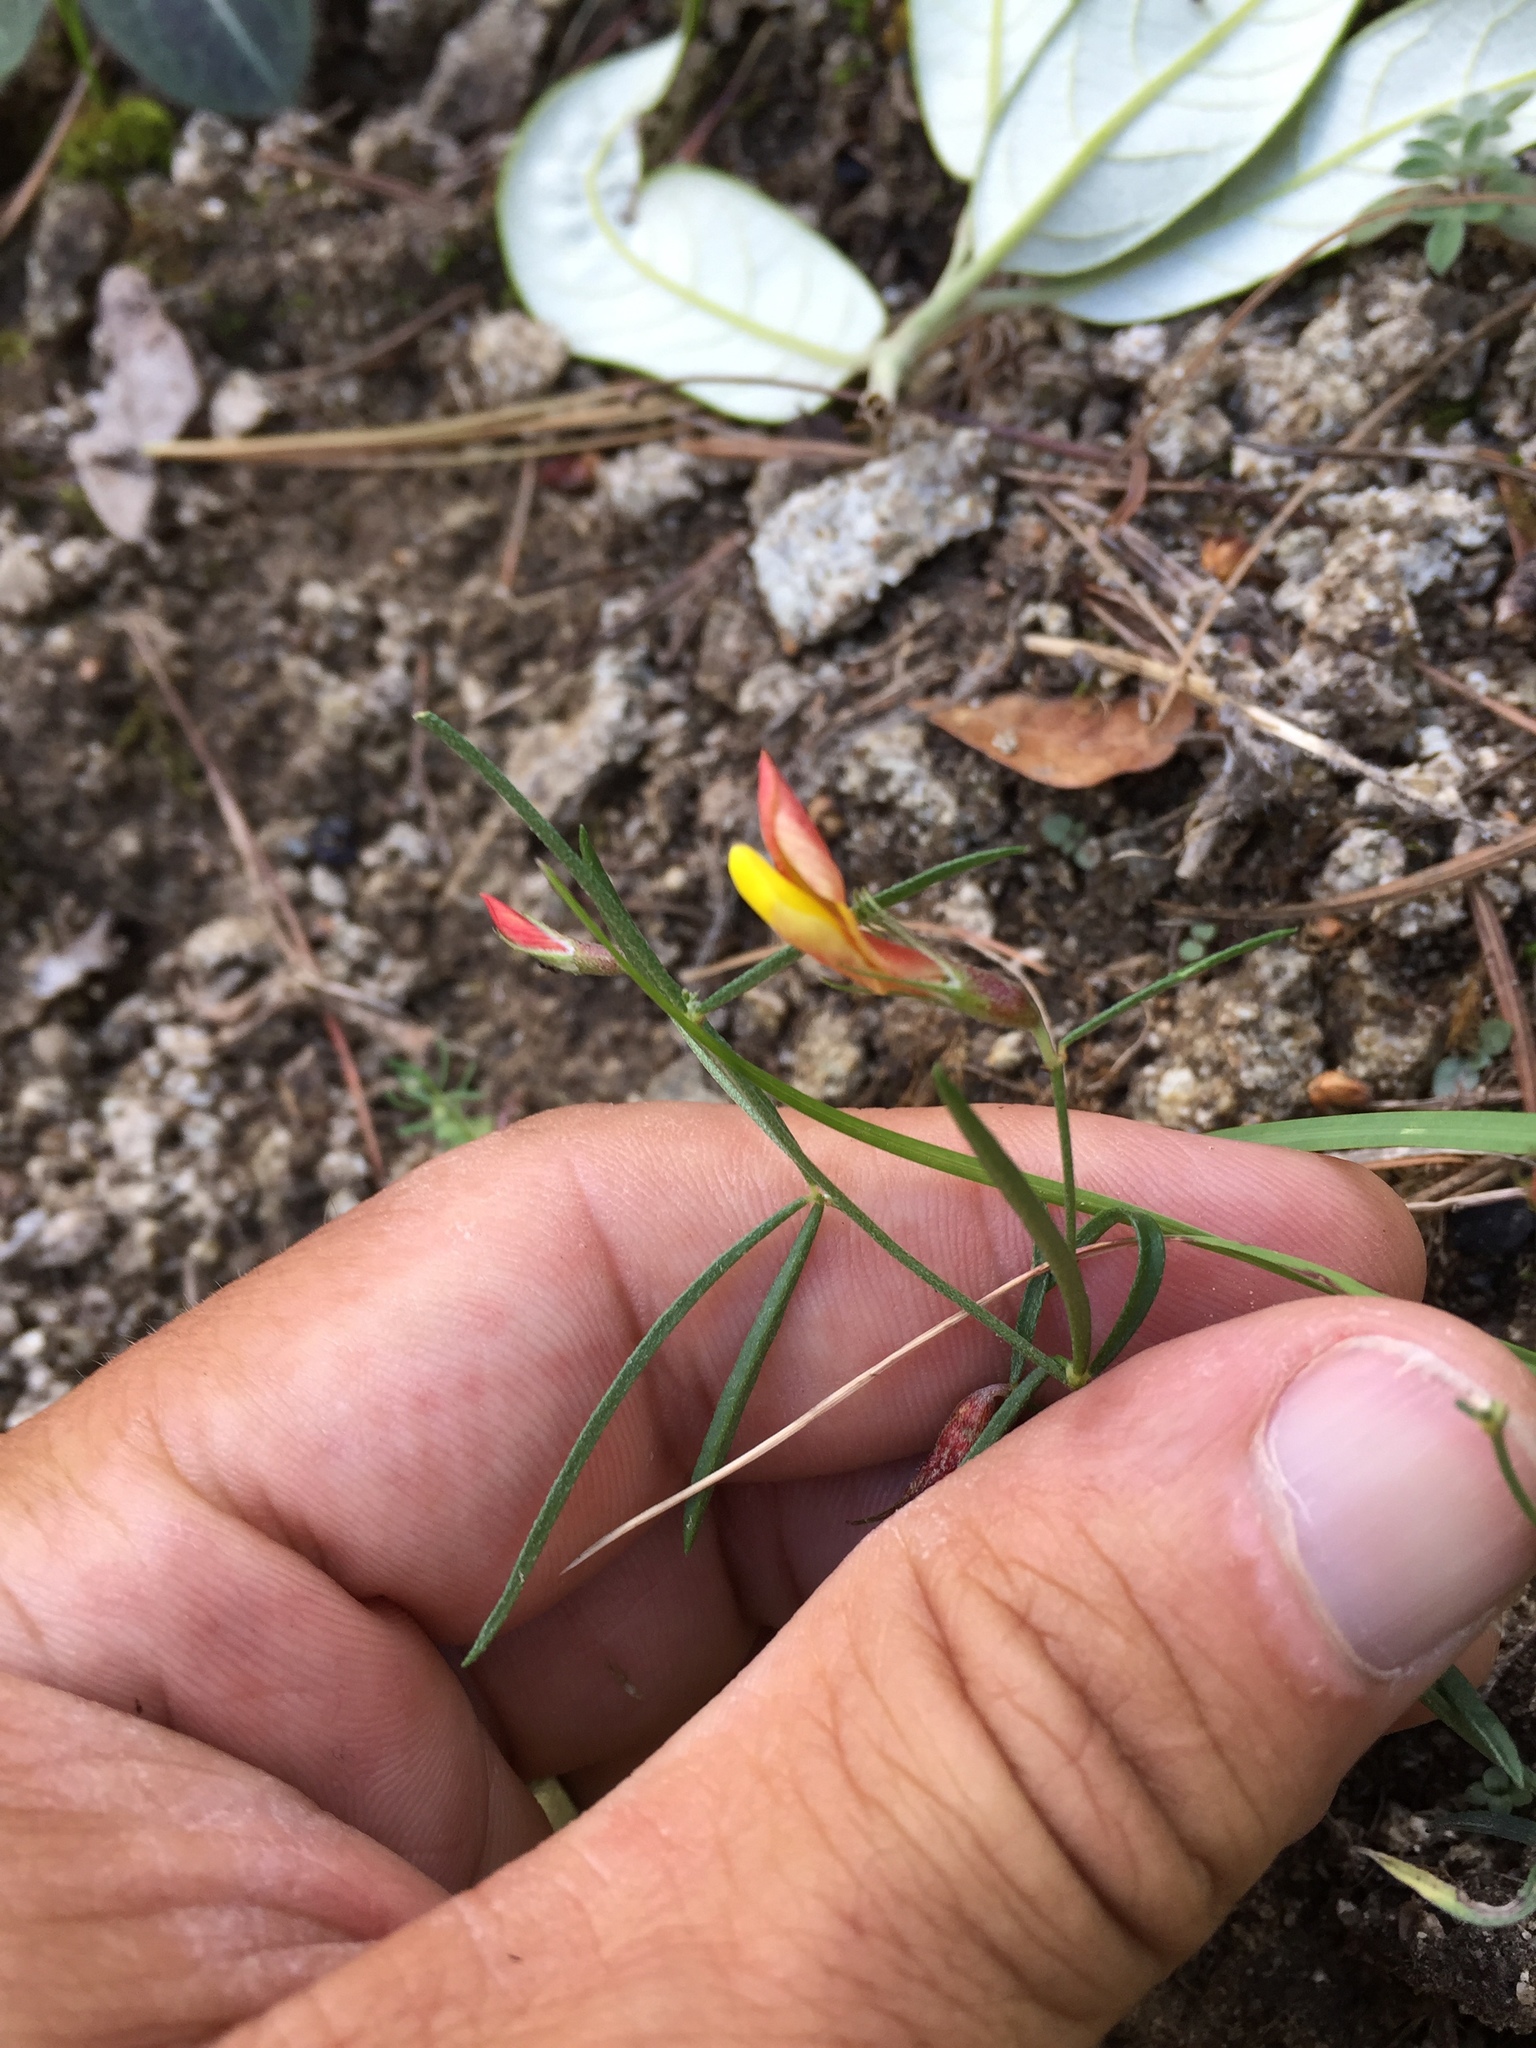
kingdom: Plantae
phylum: Tracheophyta
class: Magnoliopsida
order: Fabales
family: Fabaceae
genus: Acmispon
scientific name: Acmispon oroboides
